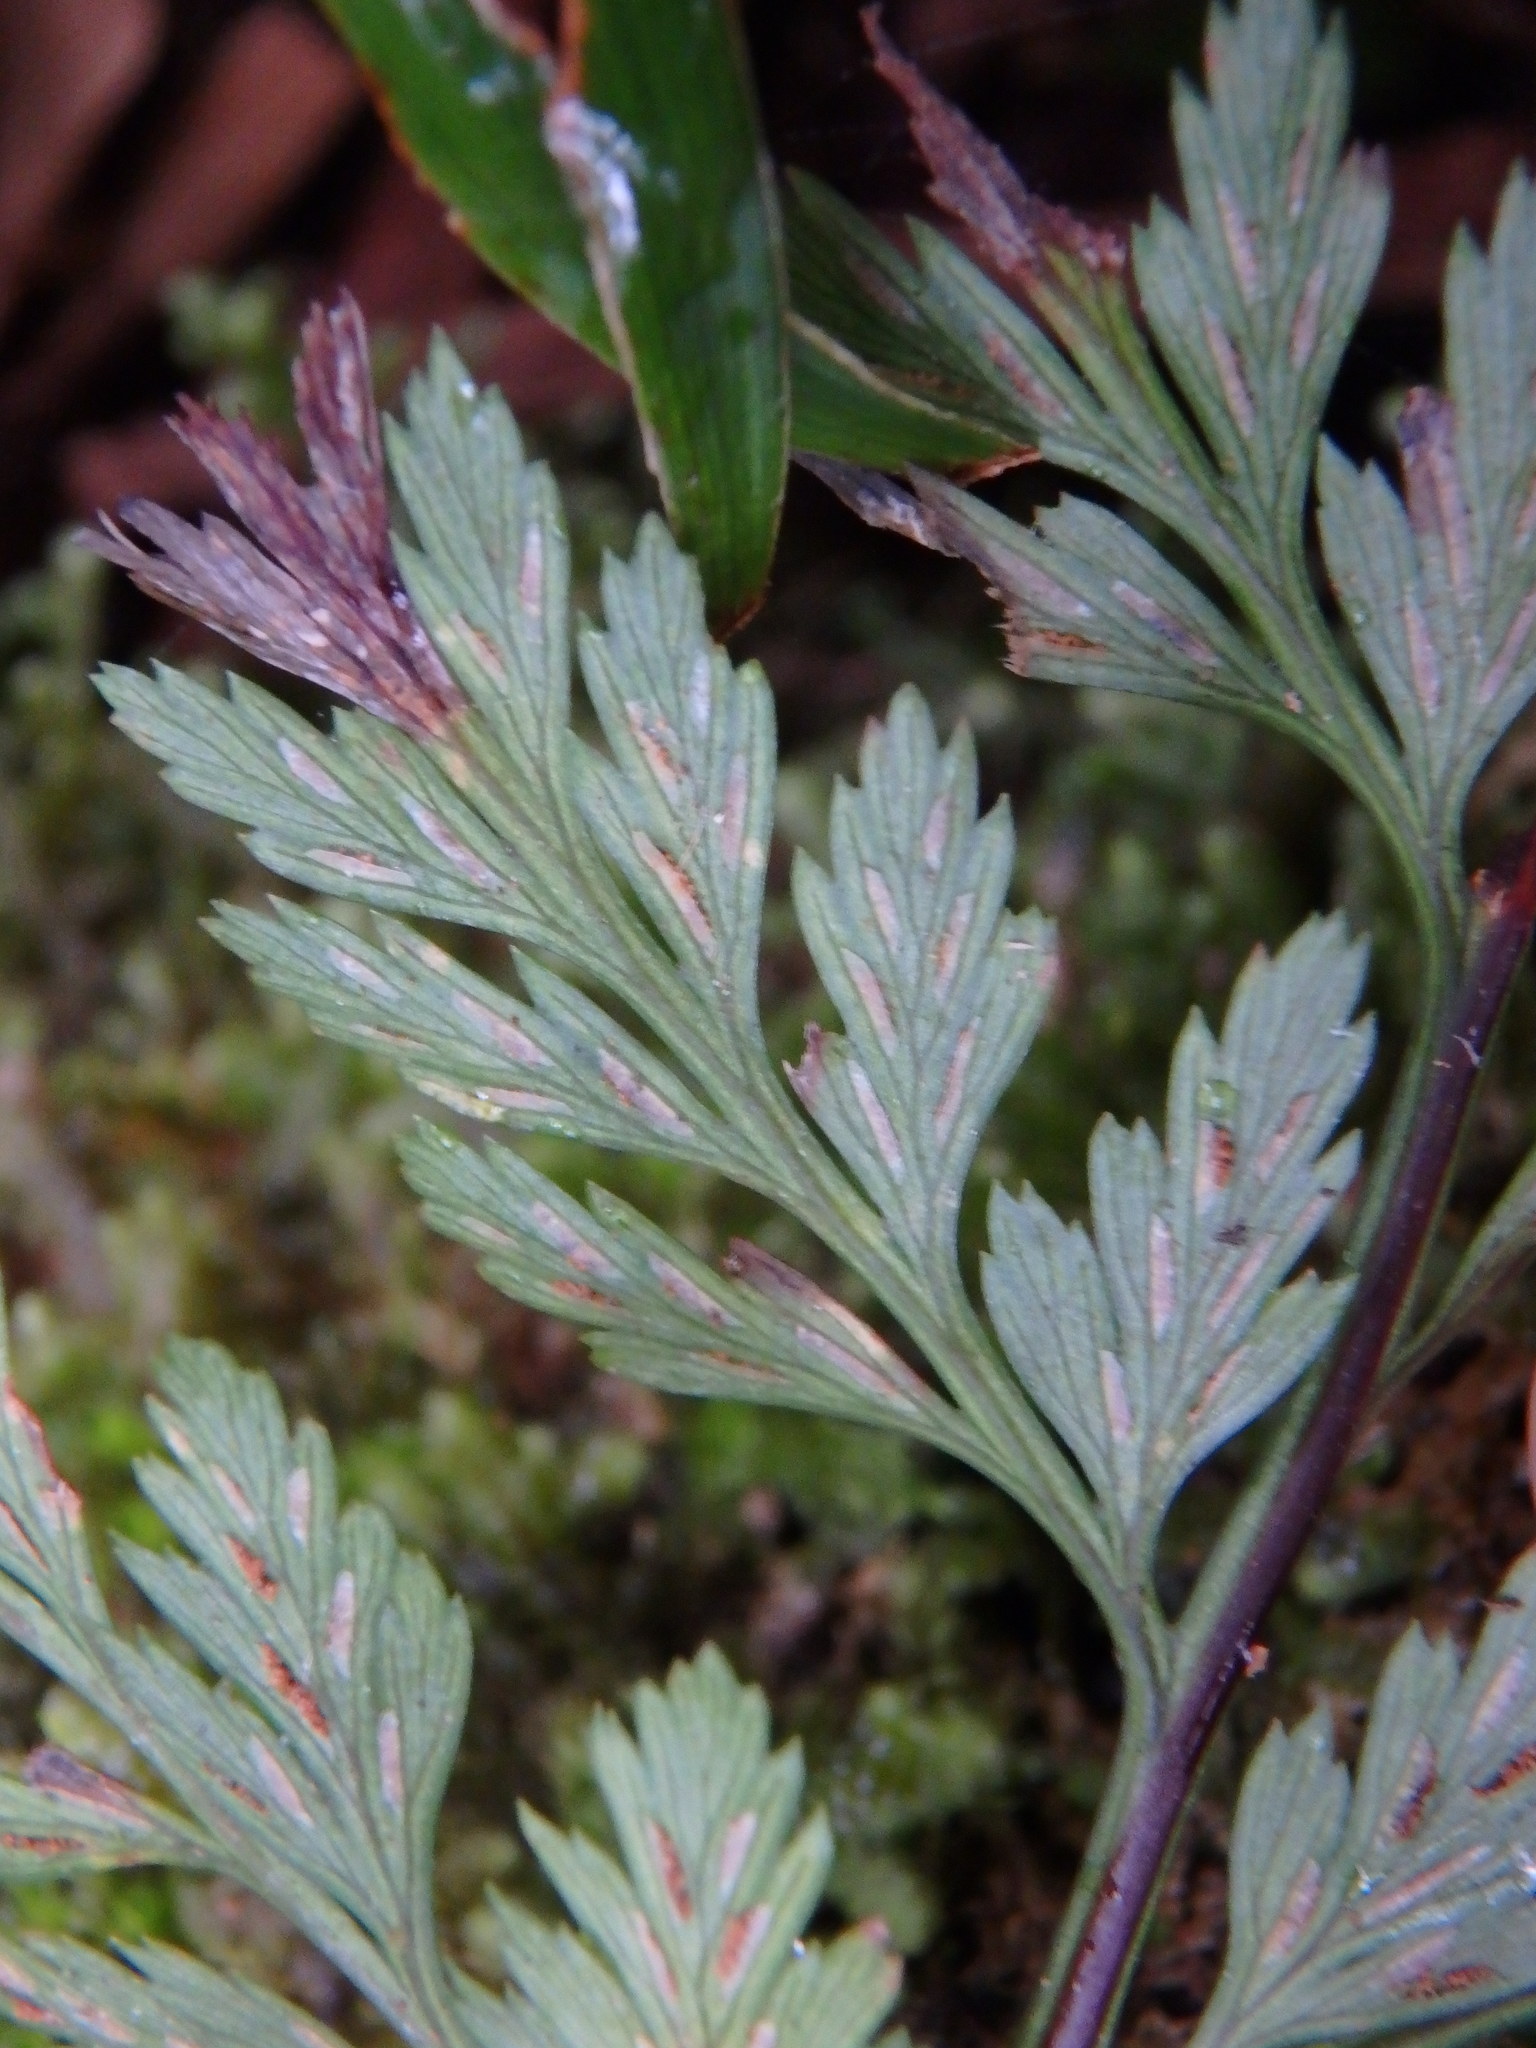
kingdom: Plantae
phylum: Tracheophyta
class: Polypodiopsida
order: Polypodiales
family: Aspleniaceae
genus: Asplenium
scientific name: Asplenium onopteris
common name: Irish spleenwort
